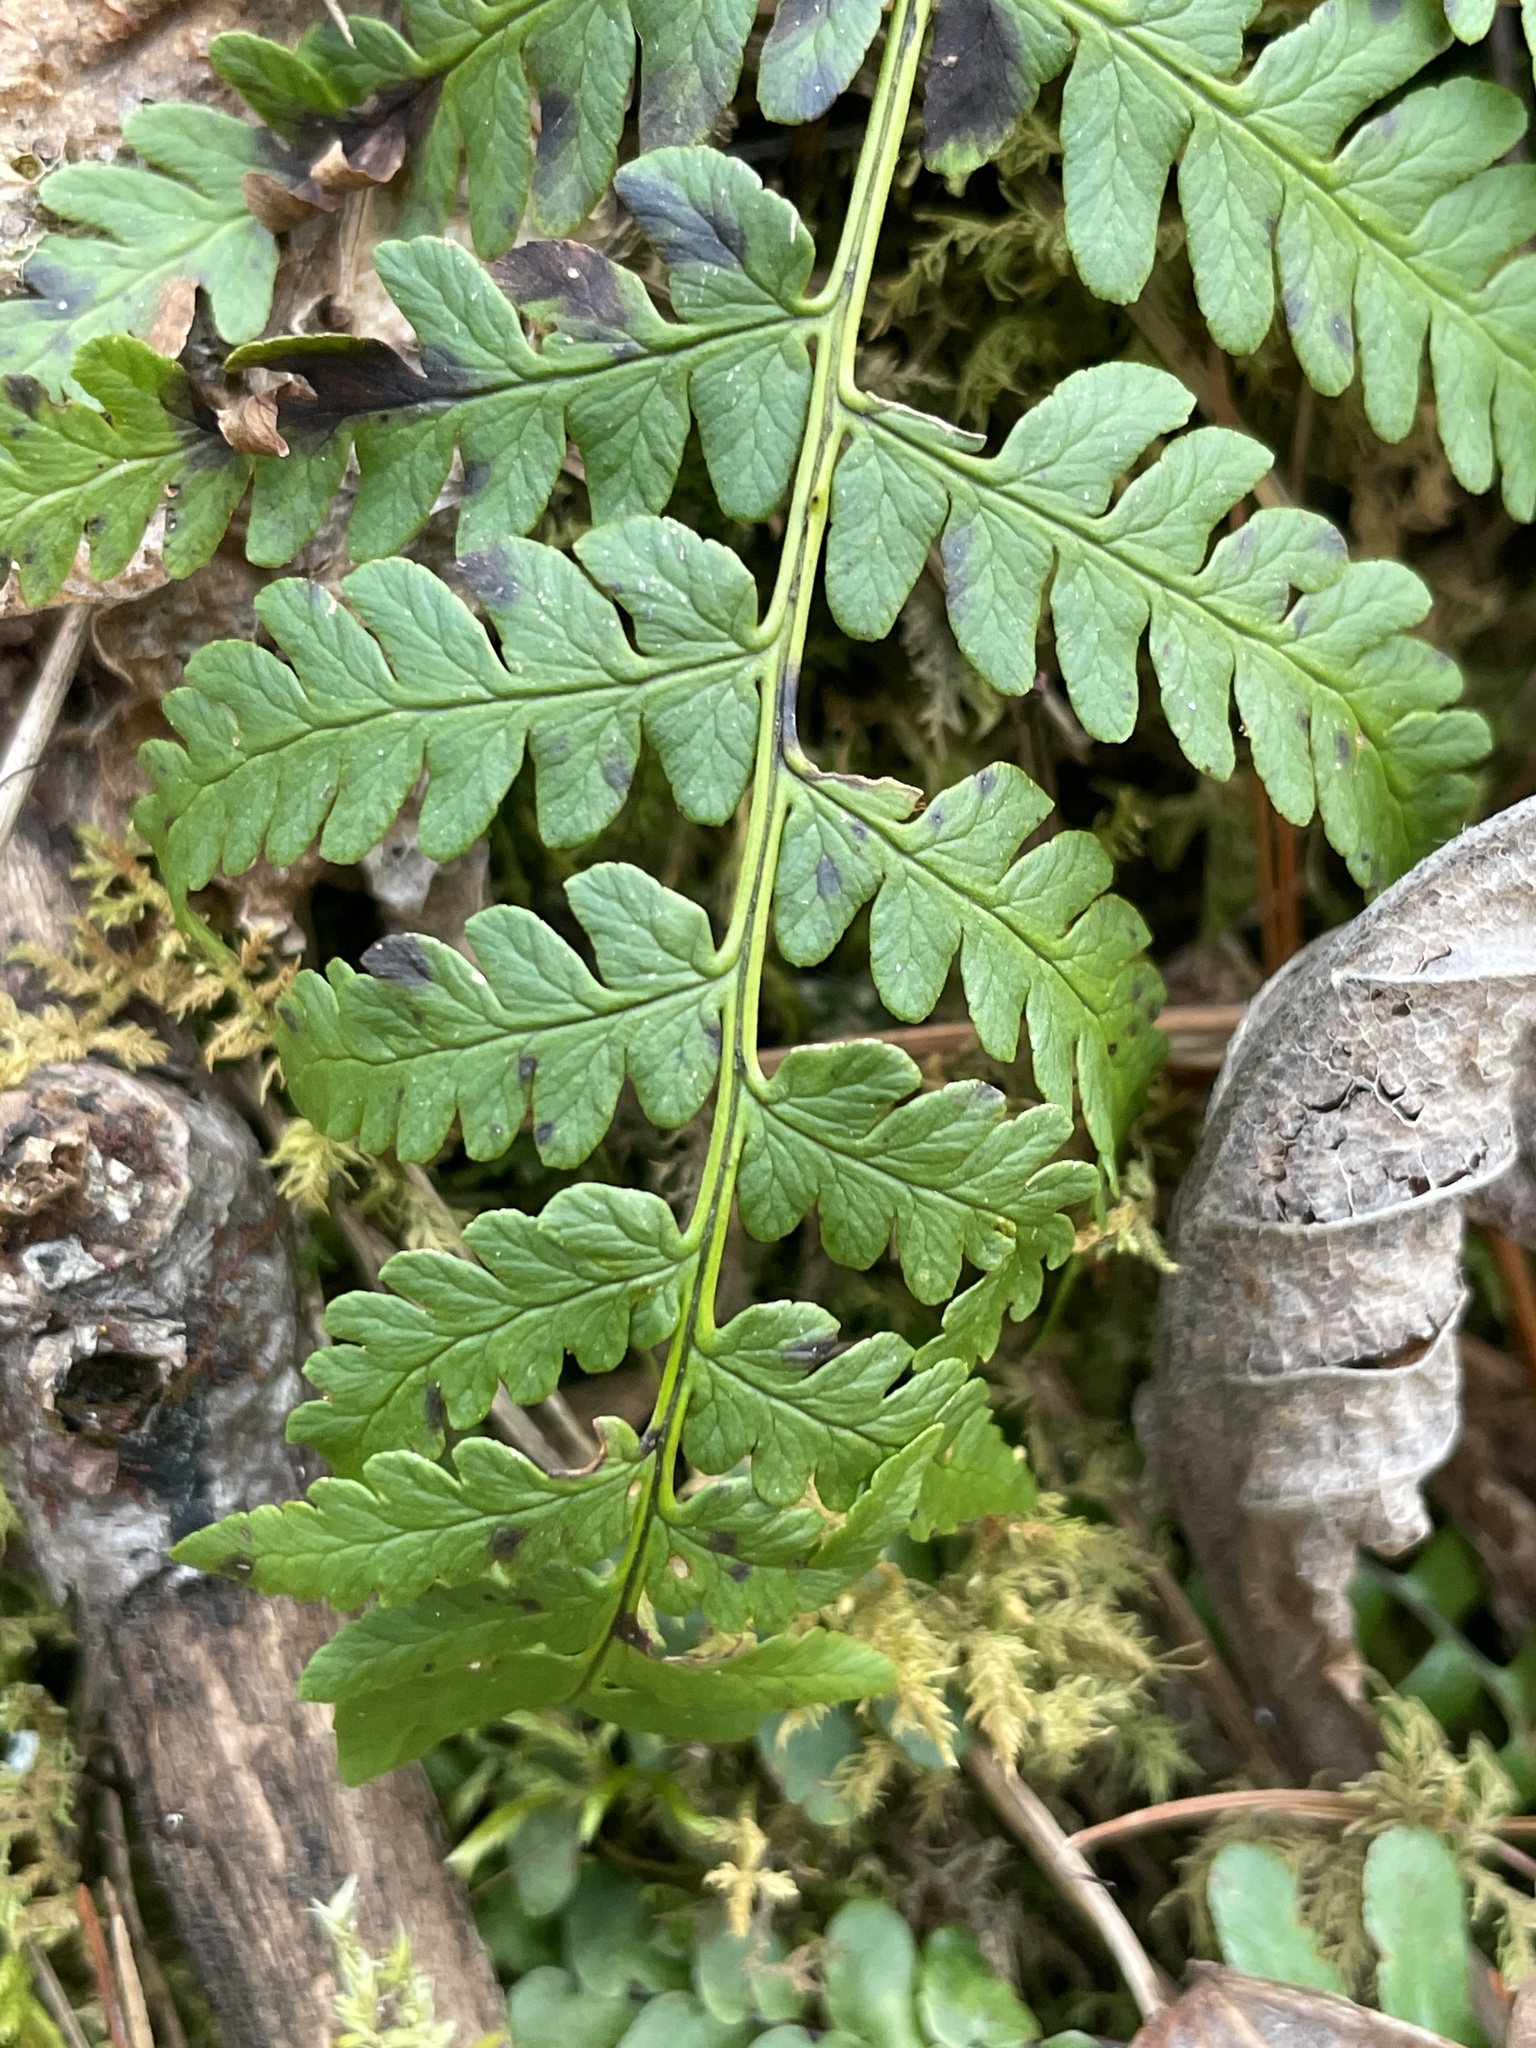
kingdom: Plantae
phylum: Tracheophyta
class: Polypodiopsida
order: Polypodiales
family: Dryopteridaceae
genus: Dryopteris
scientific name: Dryopteris marginalis
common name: Marginal wood fern
